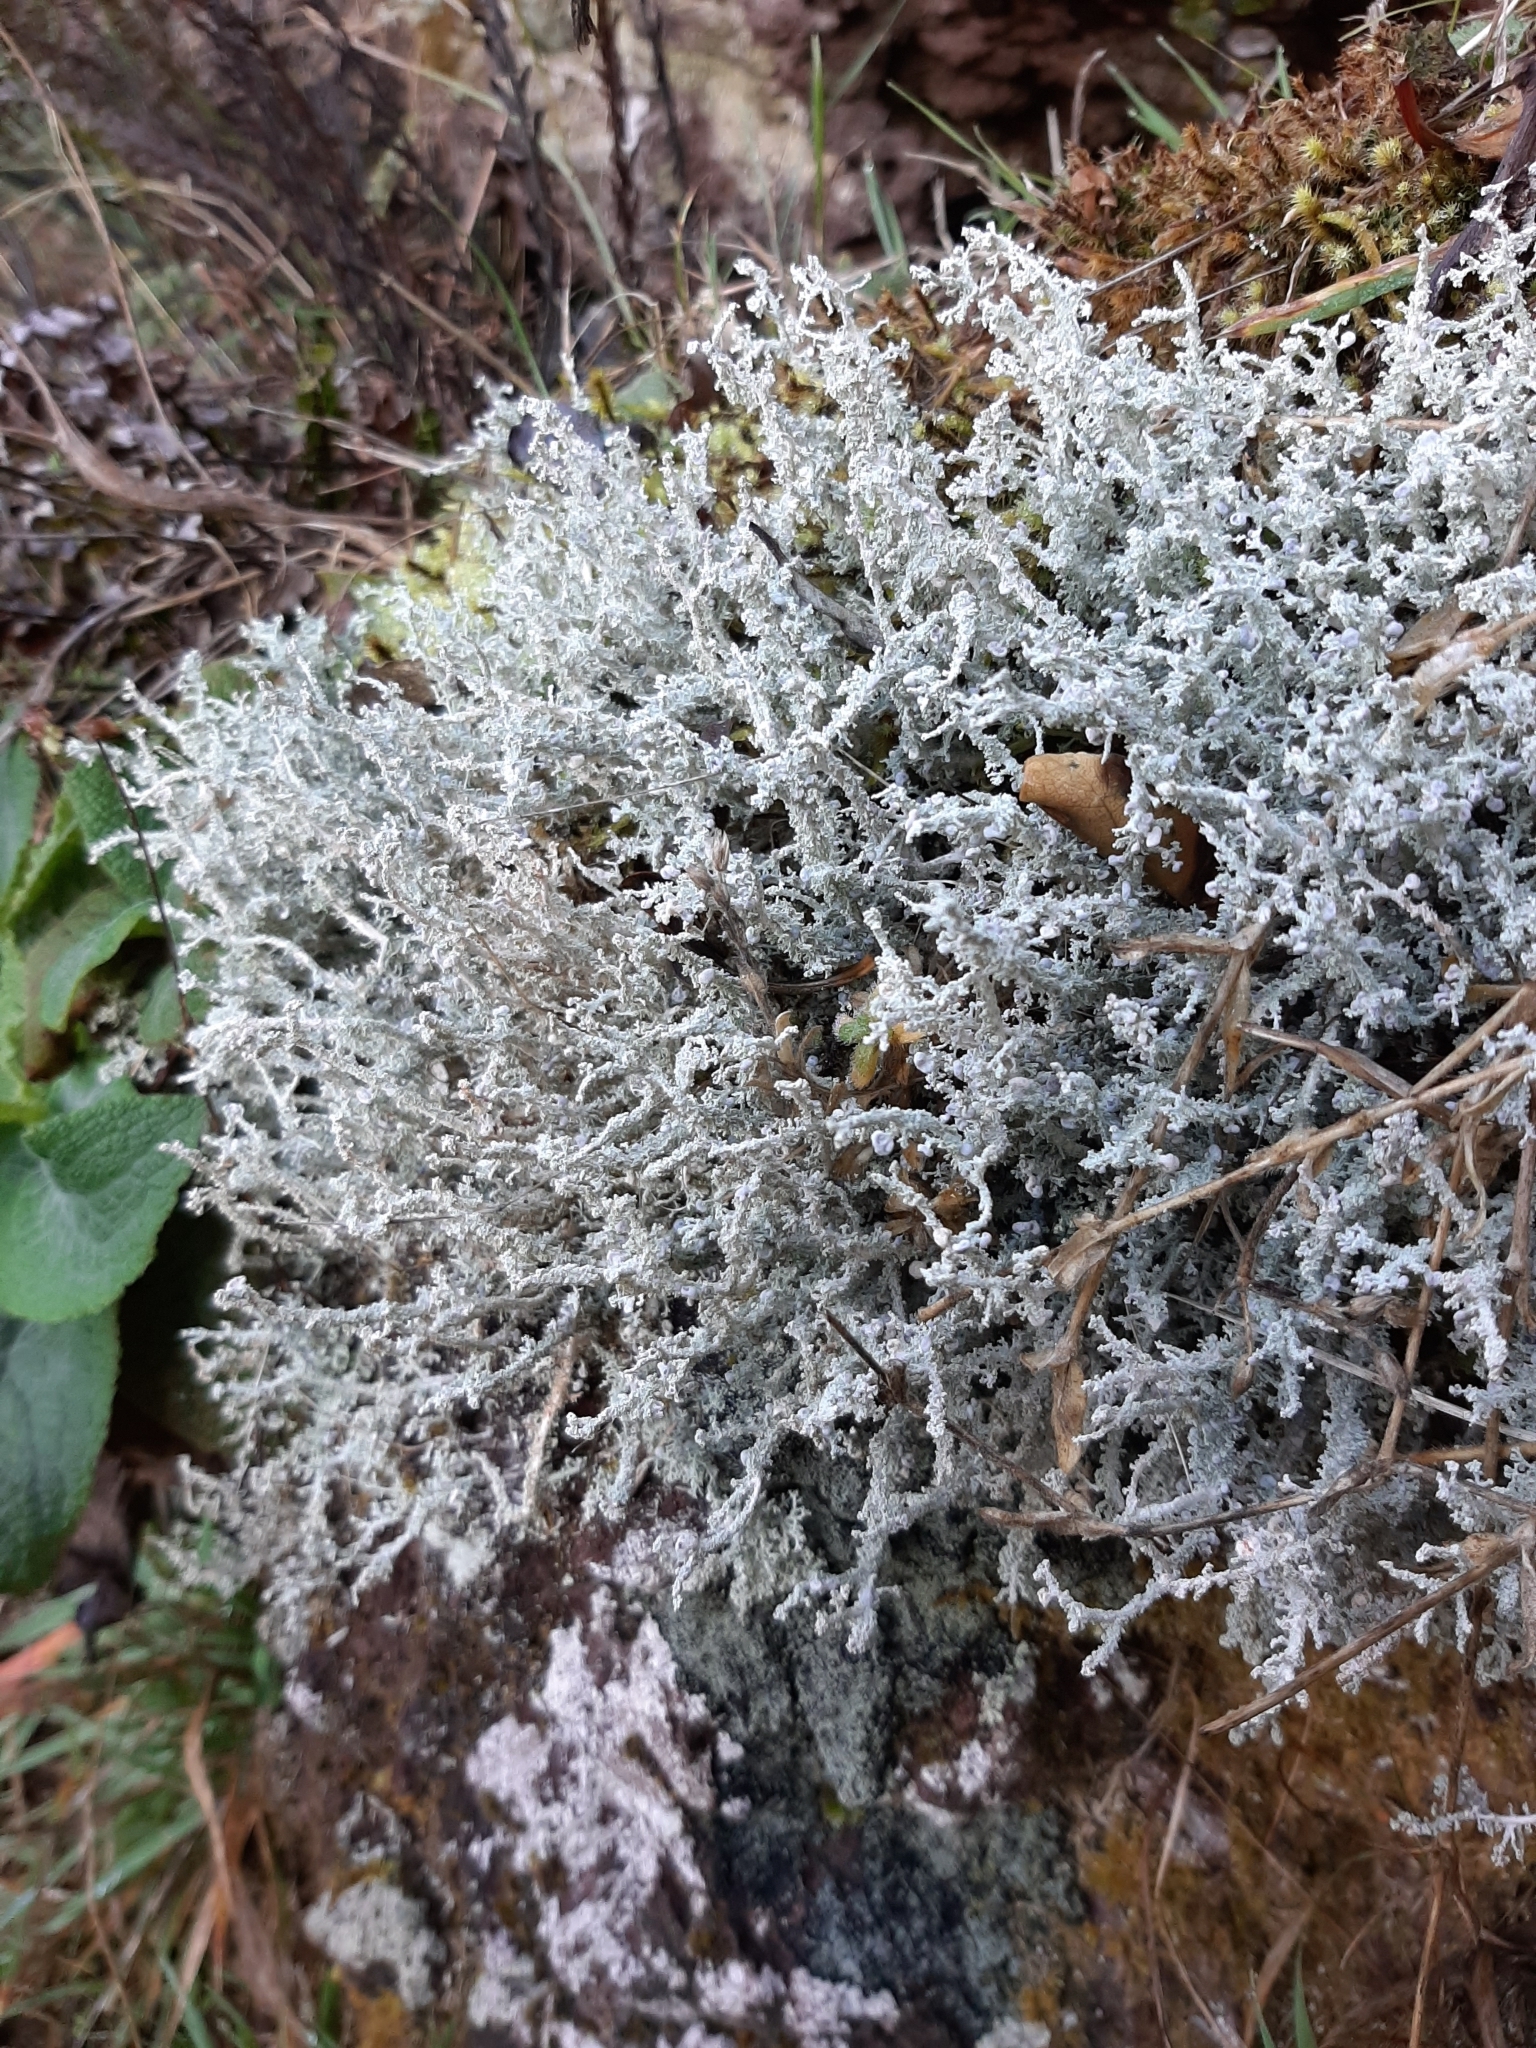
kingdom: Fungi
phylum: Ascomycota
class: Lecanoromycetes
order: Lecanorales
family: Stereocaulaceae
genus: Stereocaulon
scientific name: Stereocaulon ramulosum
